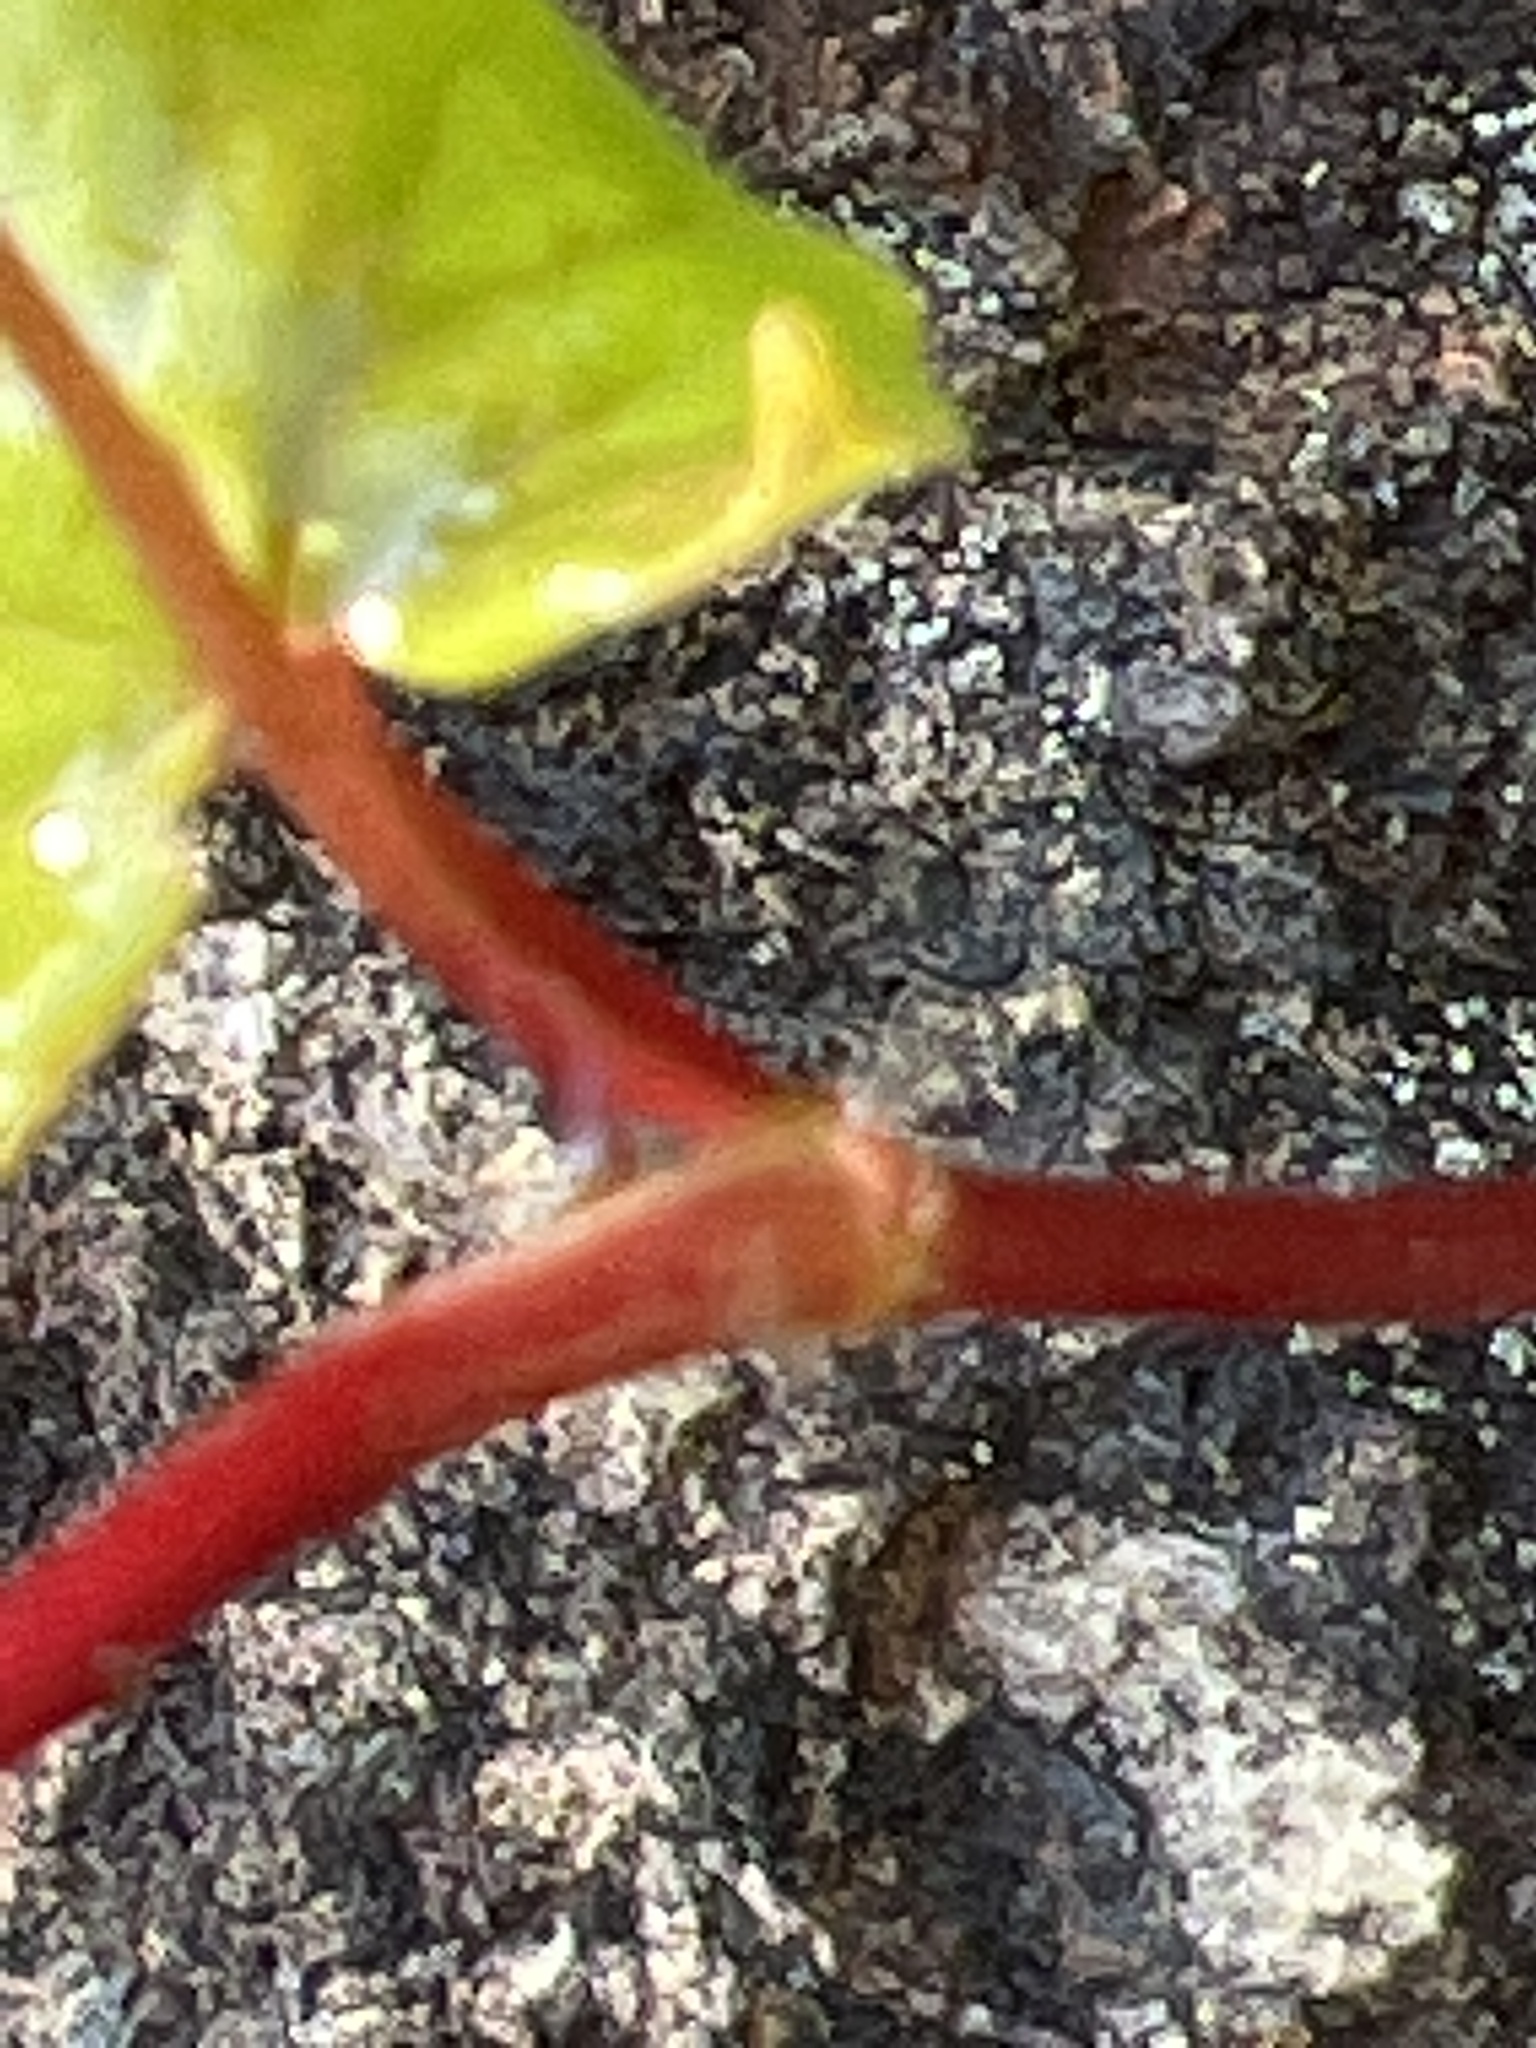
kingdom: Plantae
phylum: Tracheophyta
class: Magnoliopsida
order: Caryophyllales
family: Polygonaceae
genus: Parogonum
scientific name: Parogonum ciliinode
